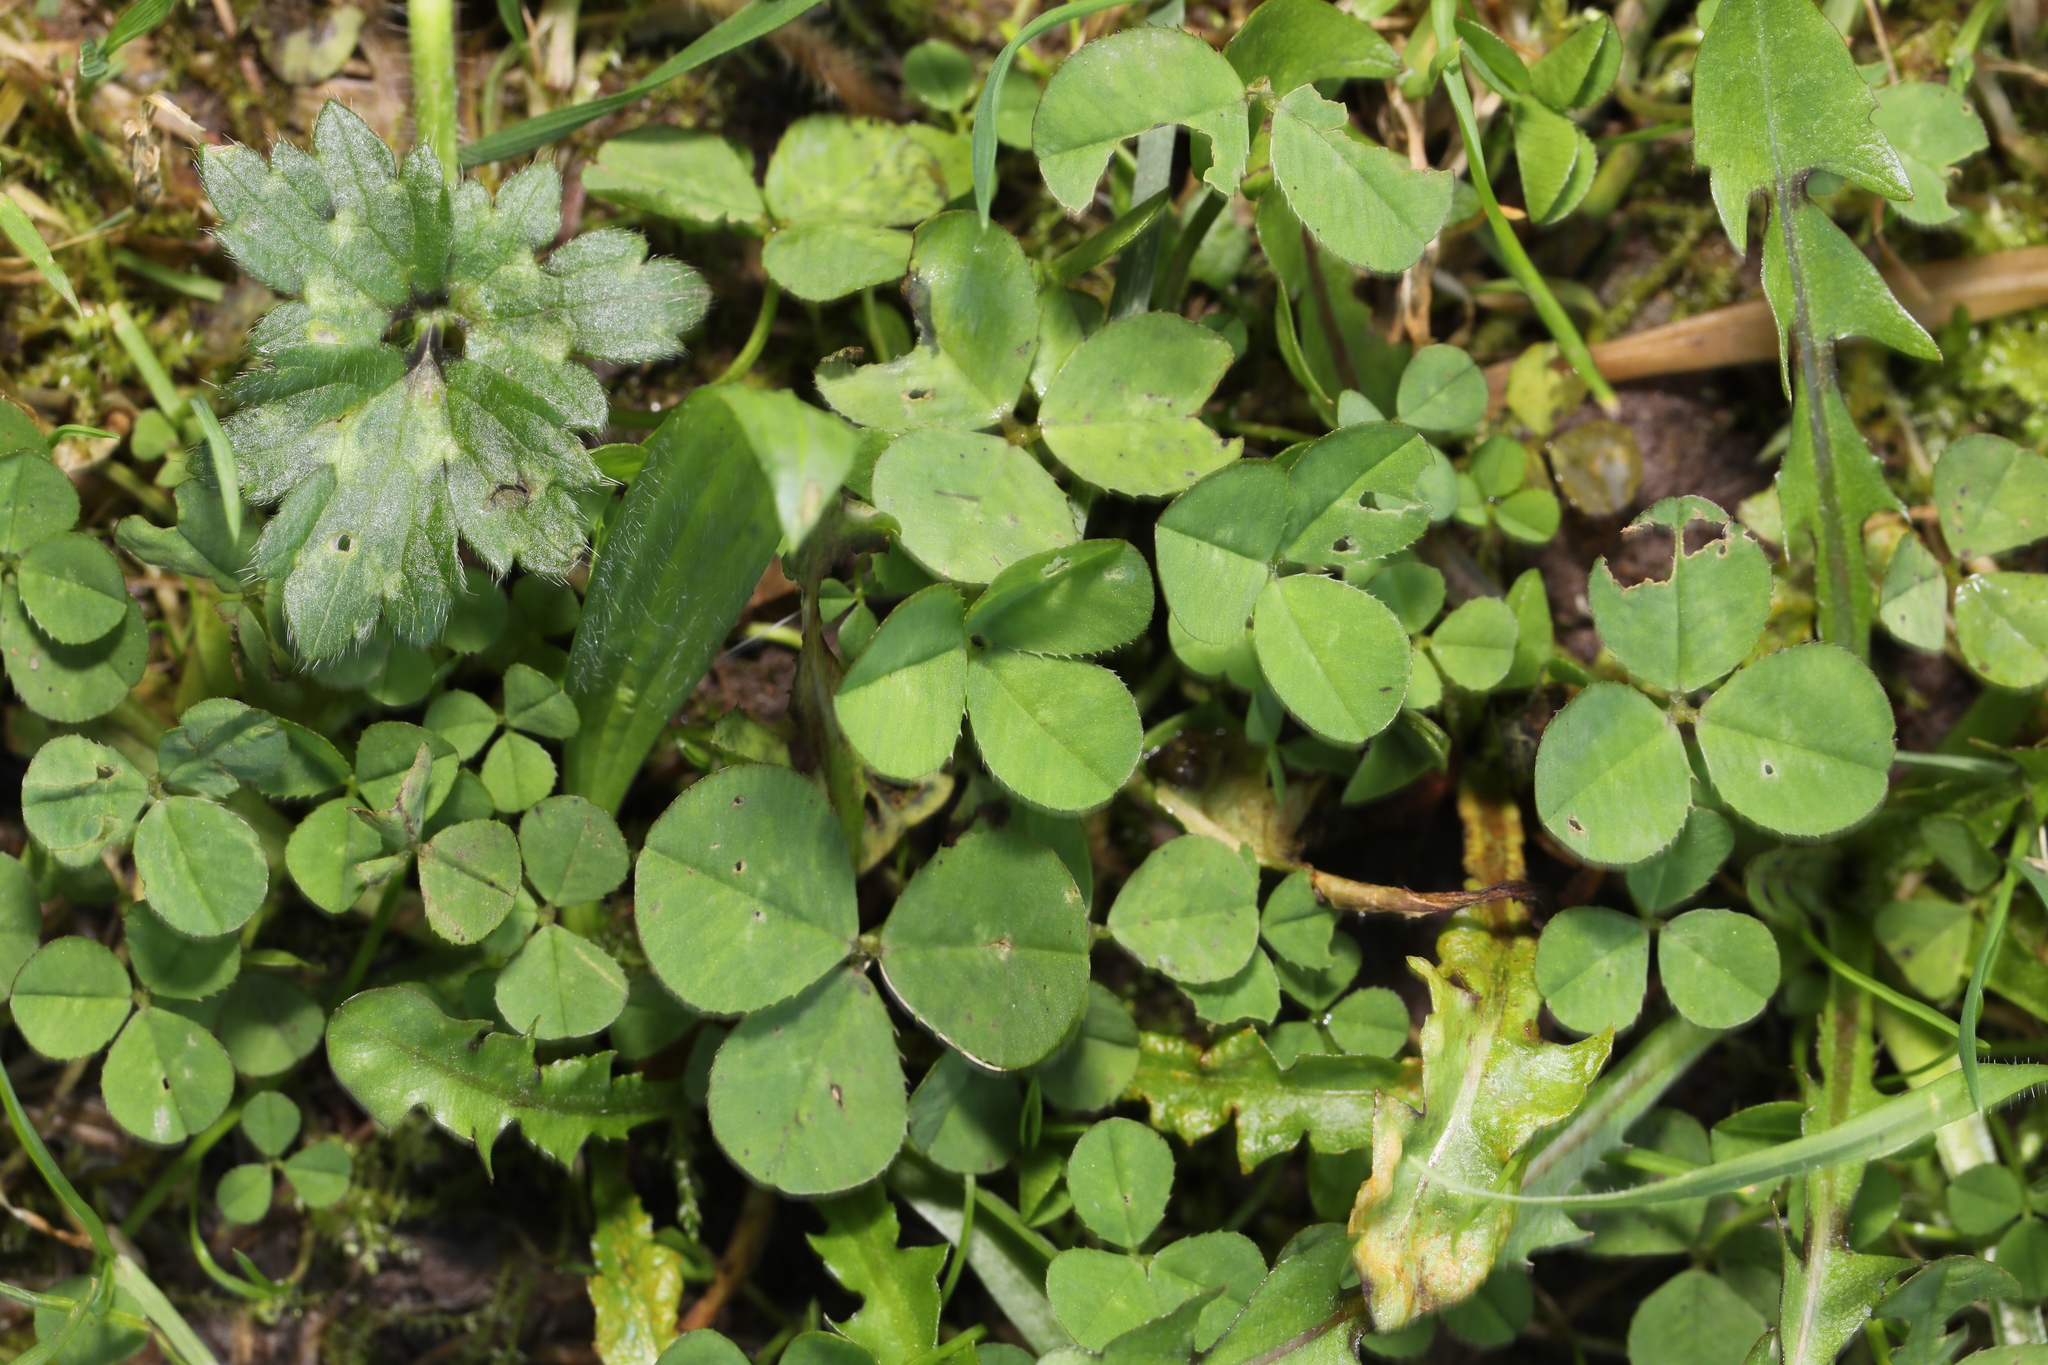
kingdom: Plantae
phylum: Tracheophyta
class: Magnoliopsida
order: Fabales
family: Fabaceae
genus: Trifolium
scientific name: Trifolium repens
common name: White clover
